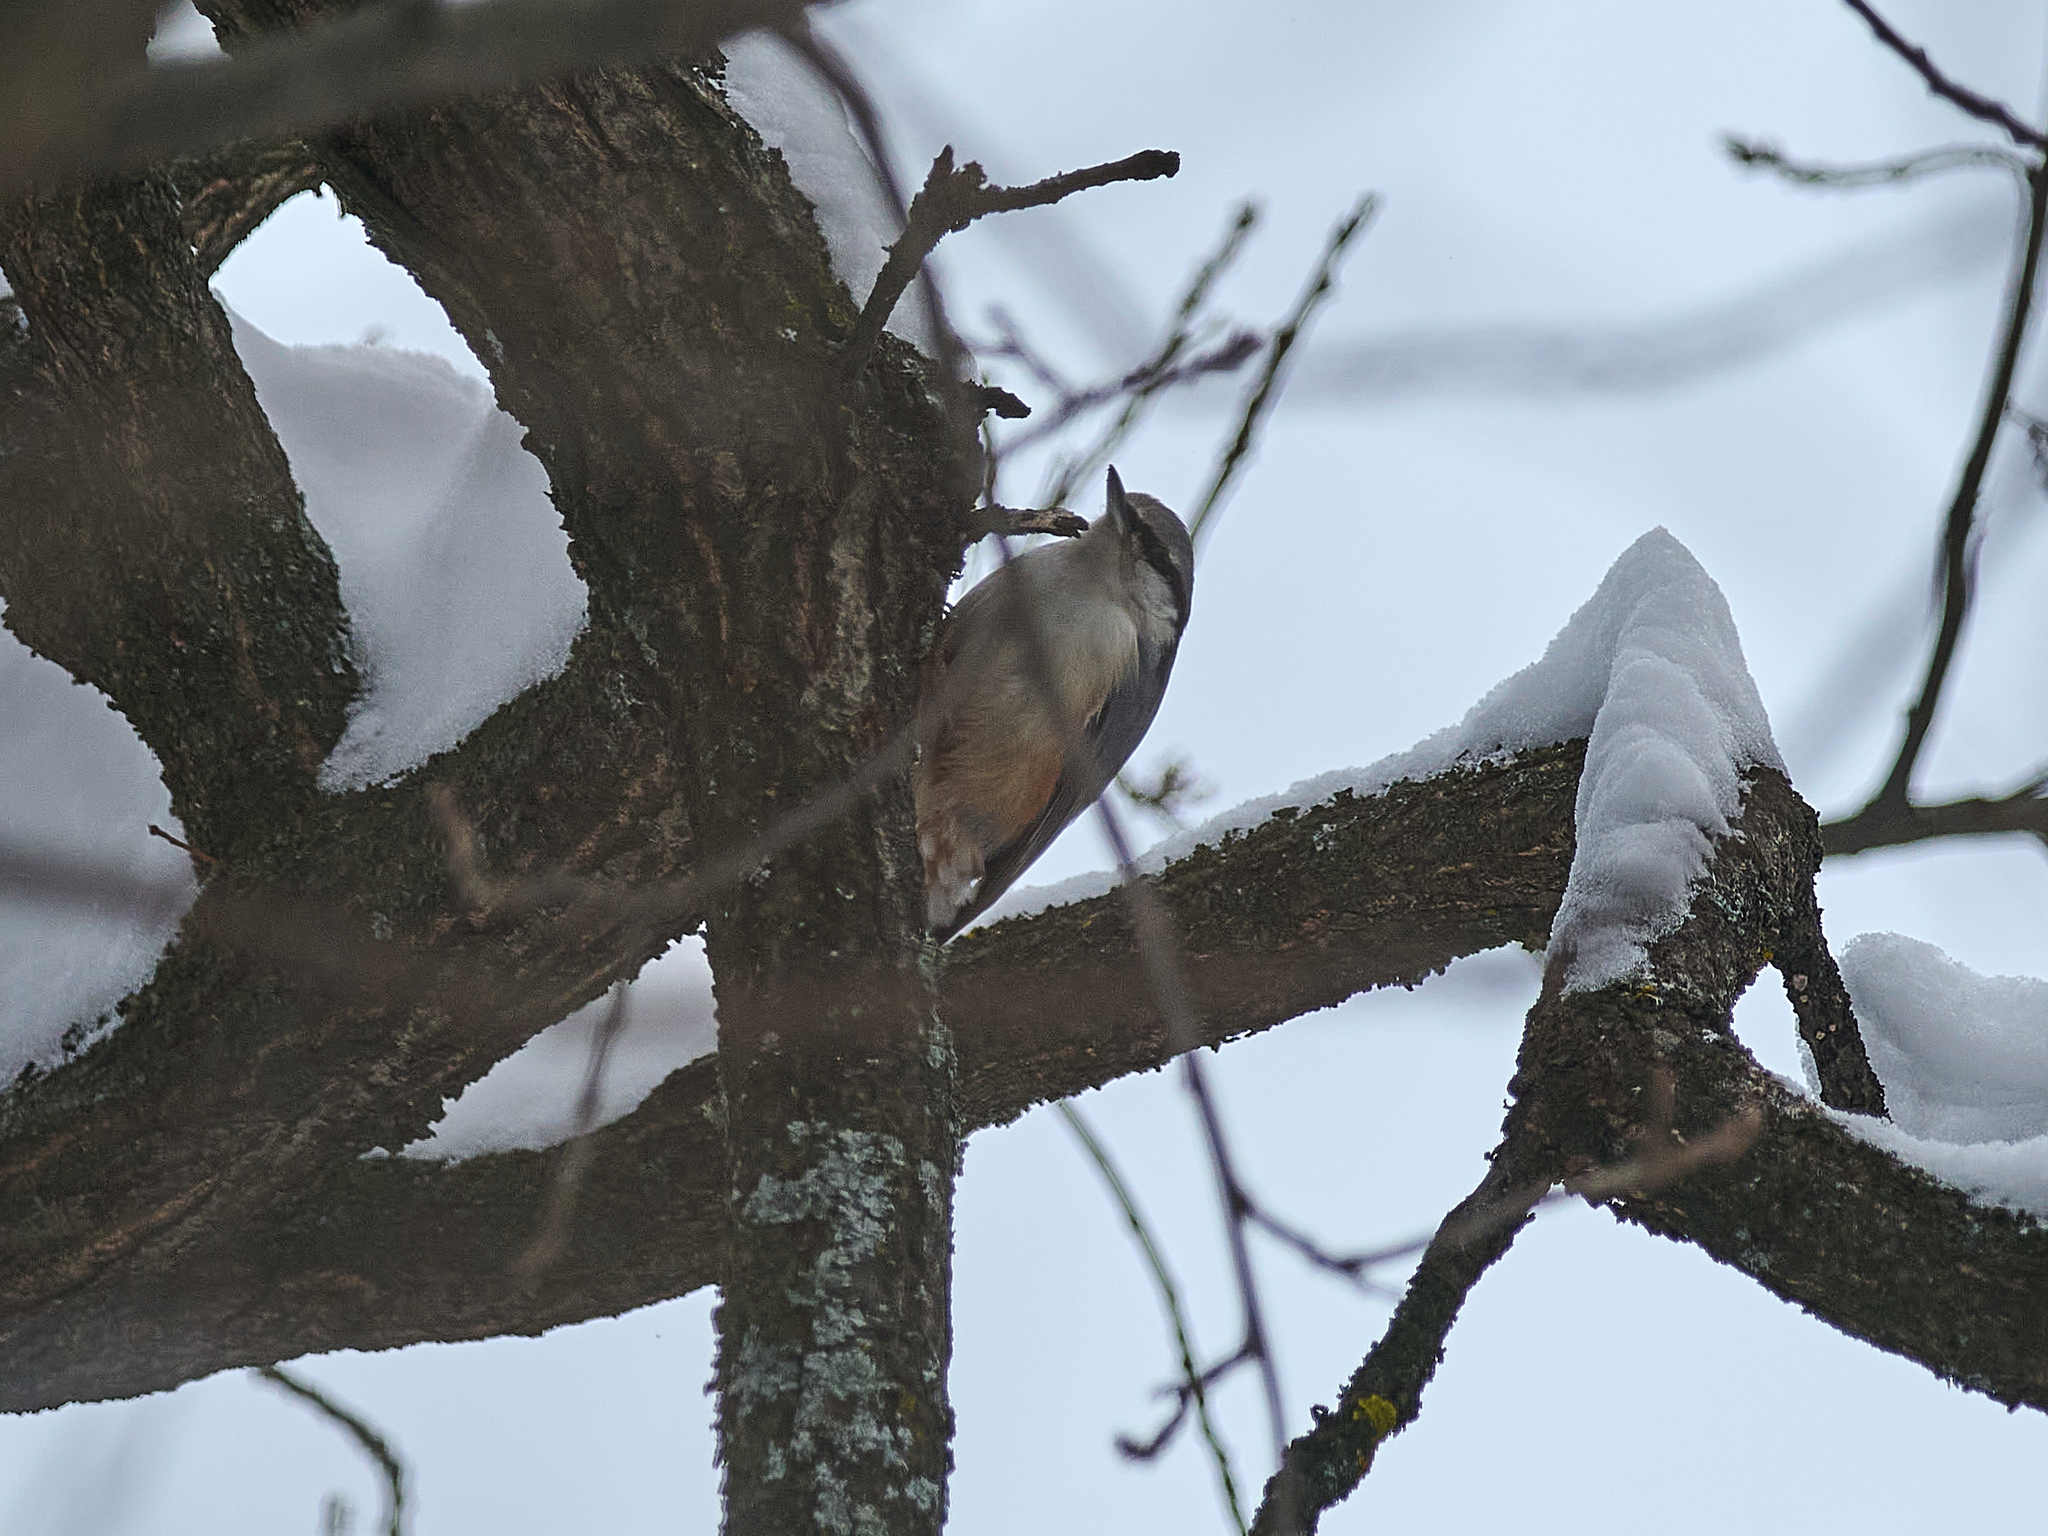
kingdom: Animalia
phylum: Chordata
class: Aves
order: Passeriformes
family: Sittidae
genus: Sitta
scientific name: Sitta europaea
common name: Eurasian nuthatch
